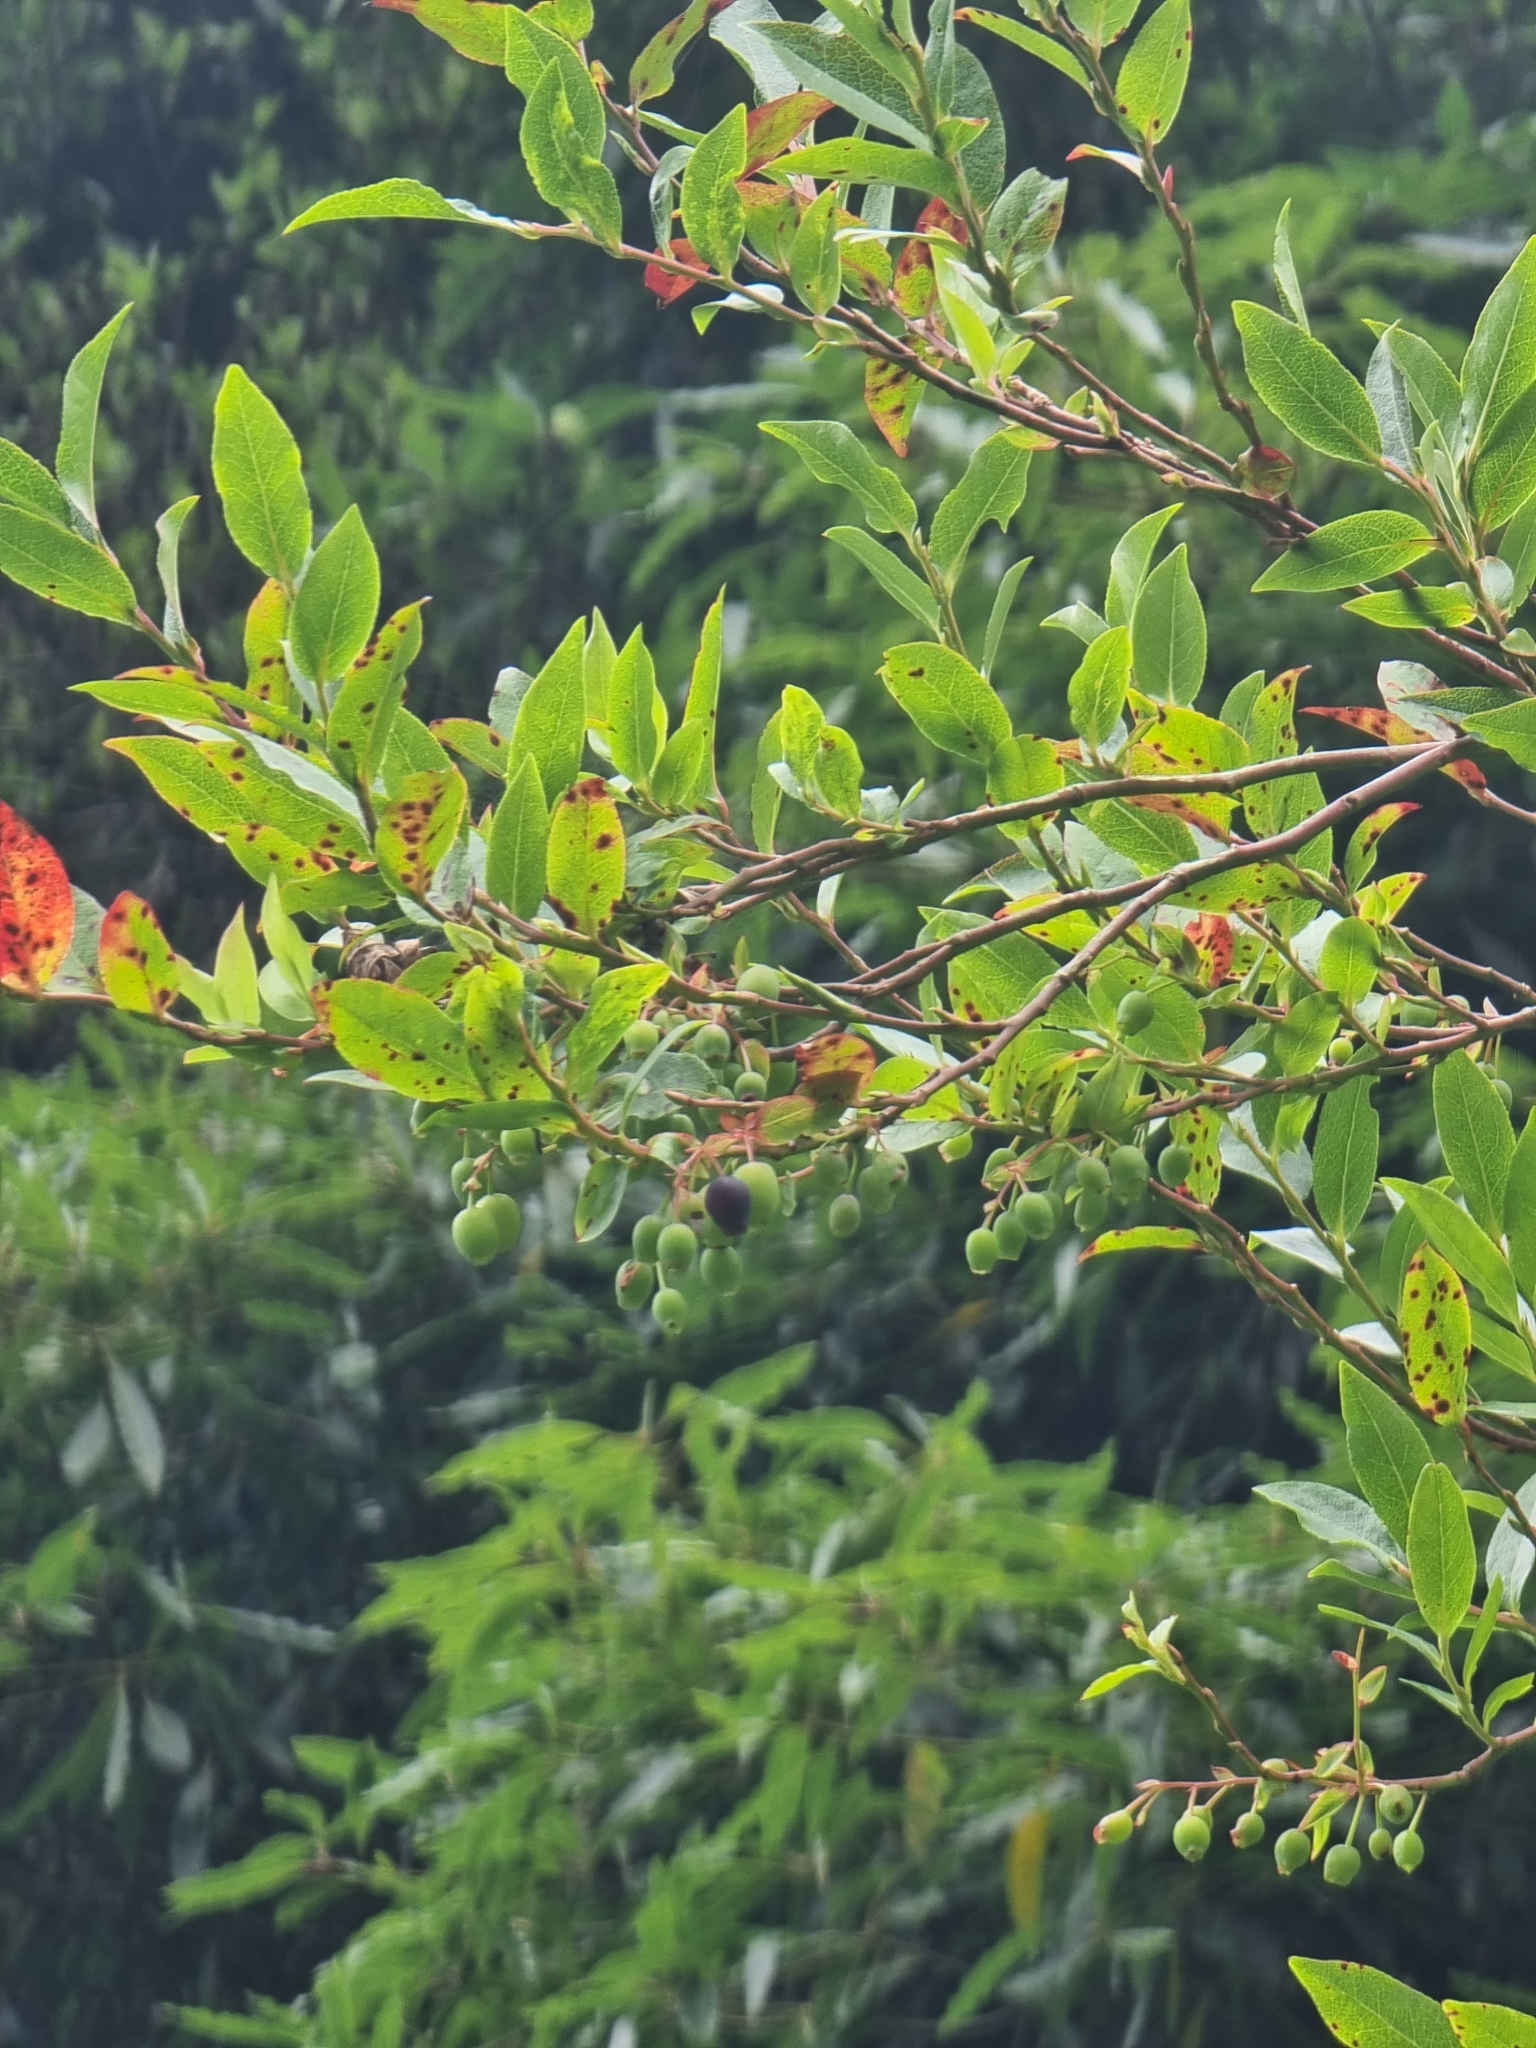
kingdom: Plantae
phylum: Tracheophyta
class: Magnoliopsida
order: Ericales
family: Ericaceae
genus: Vaccinium
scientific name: Vaccinium padifolium
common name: Madeiran blueberry
